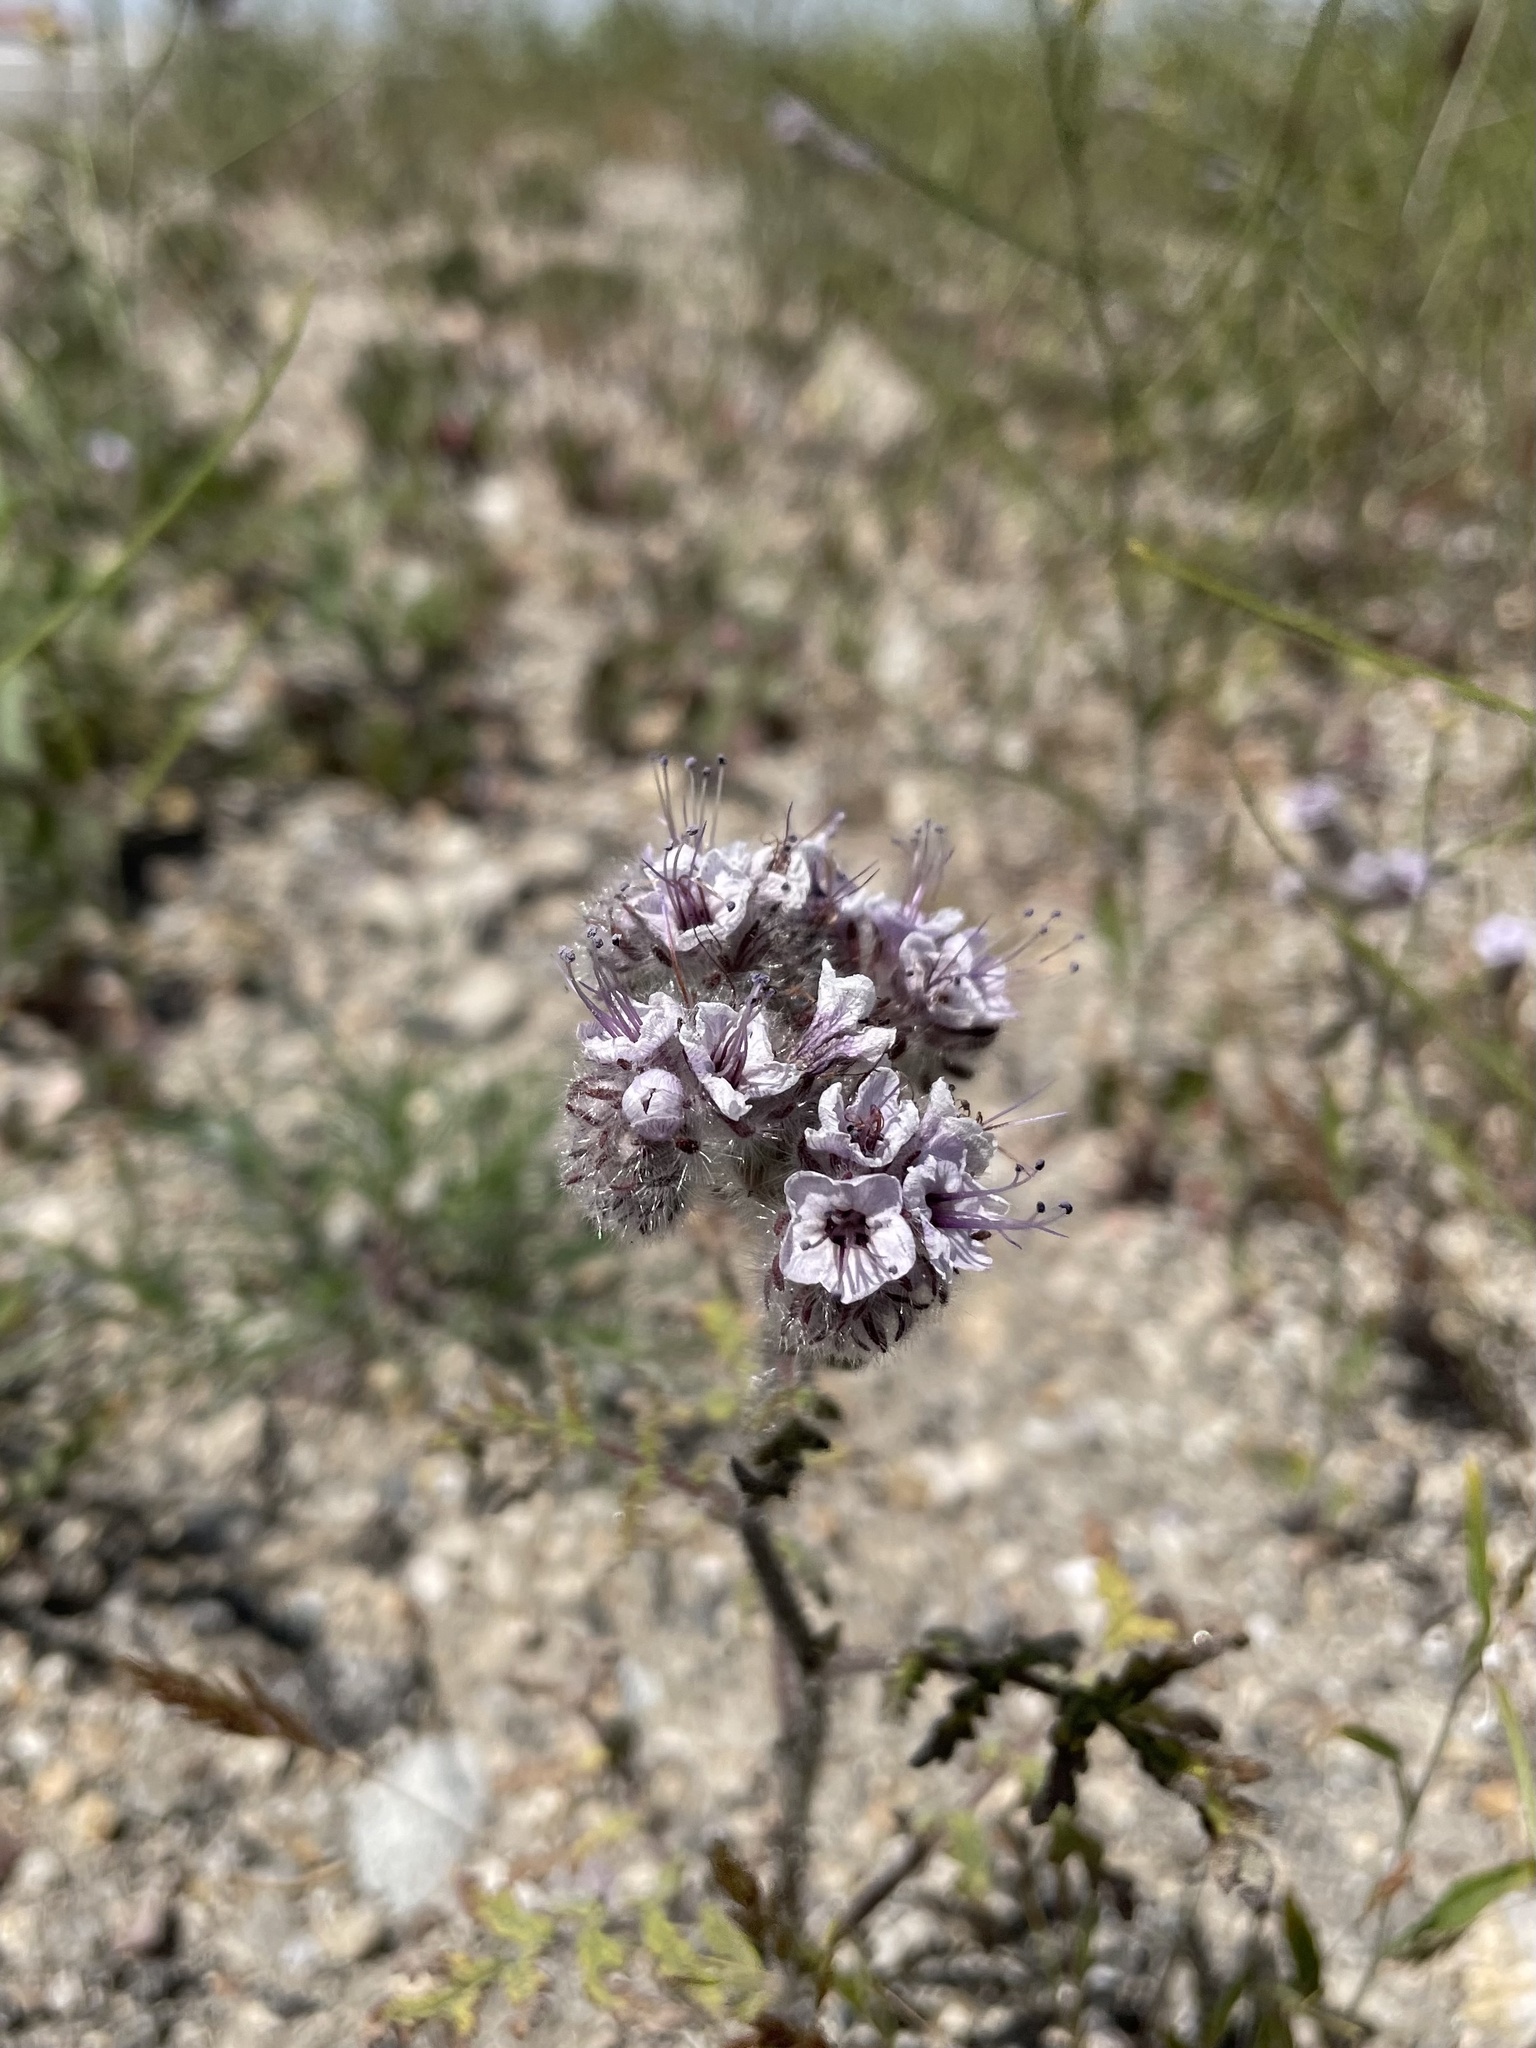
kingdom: Plantae
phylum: Tracheophyta
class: Magnoliopsida
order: Boraginales
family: Hydrophyllaceae
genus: Phacelia
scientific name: Phacelia hubbyi
